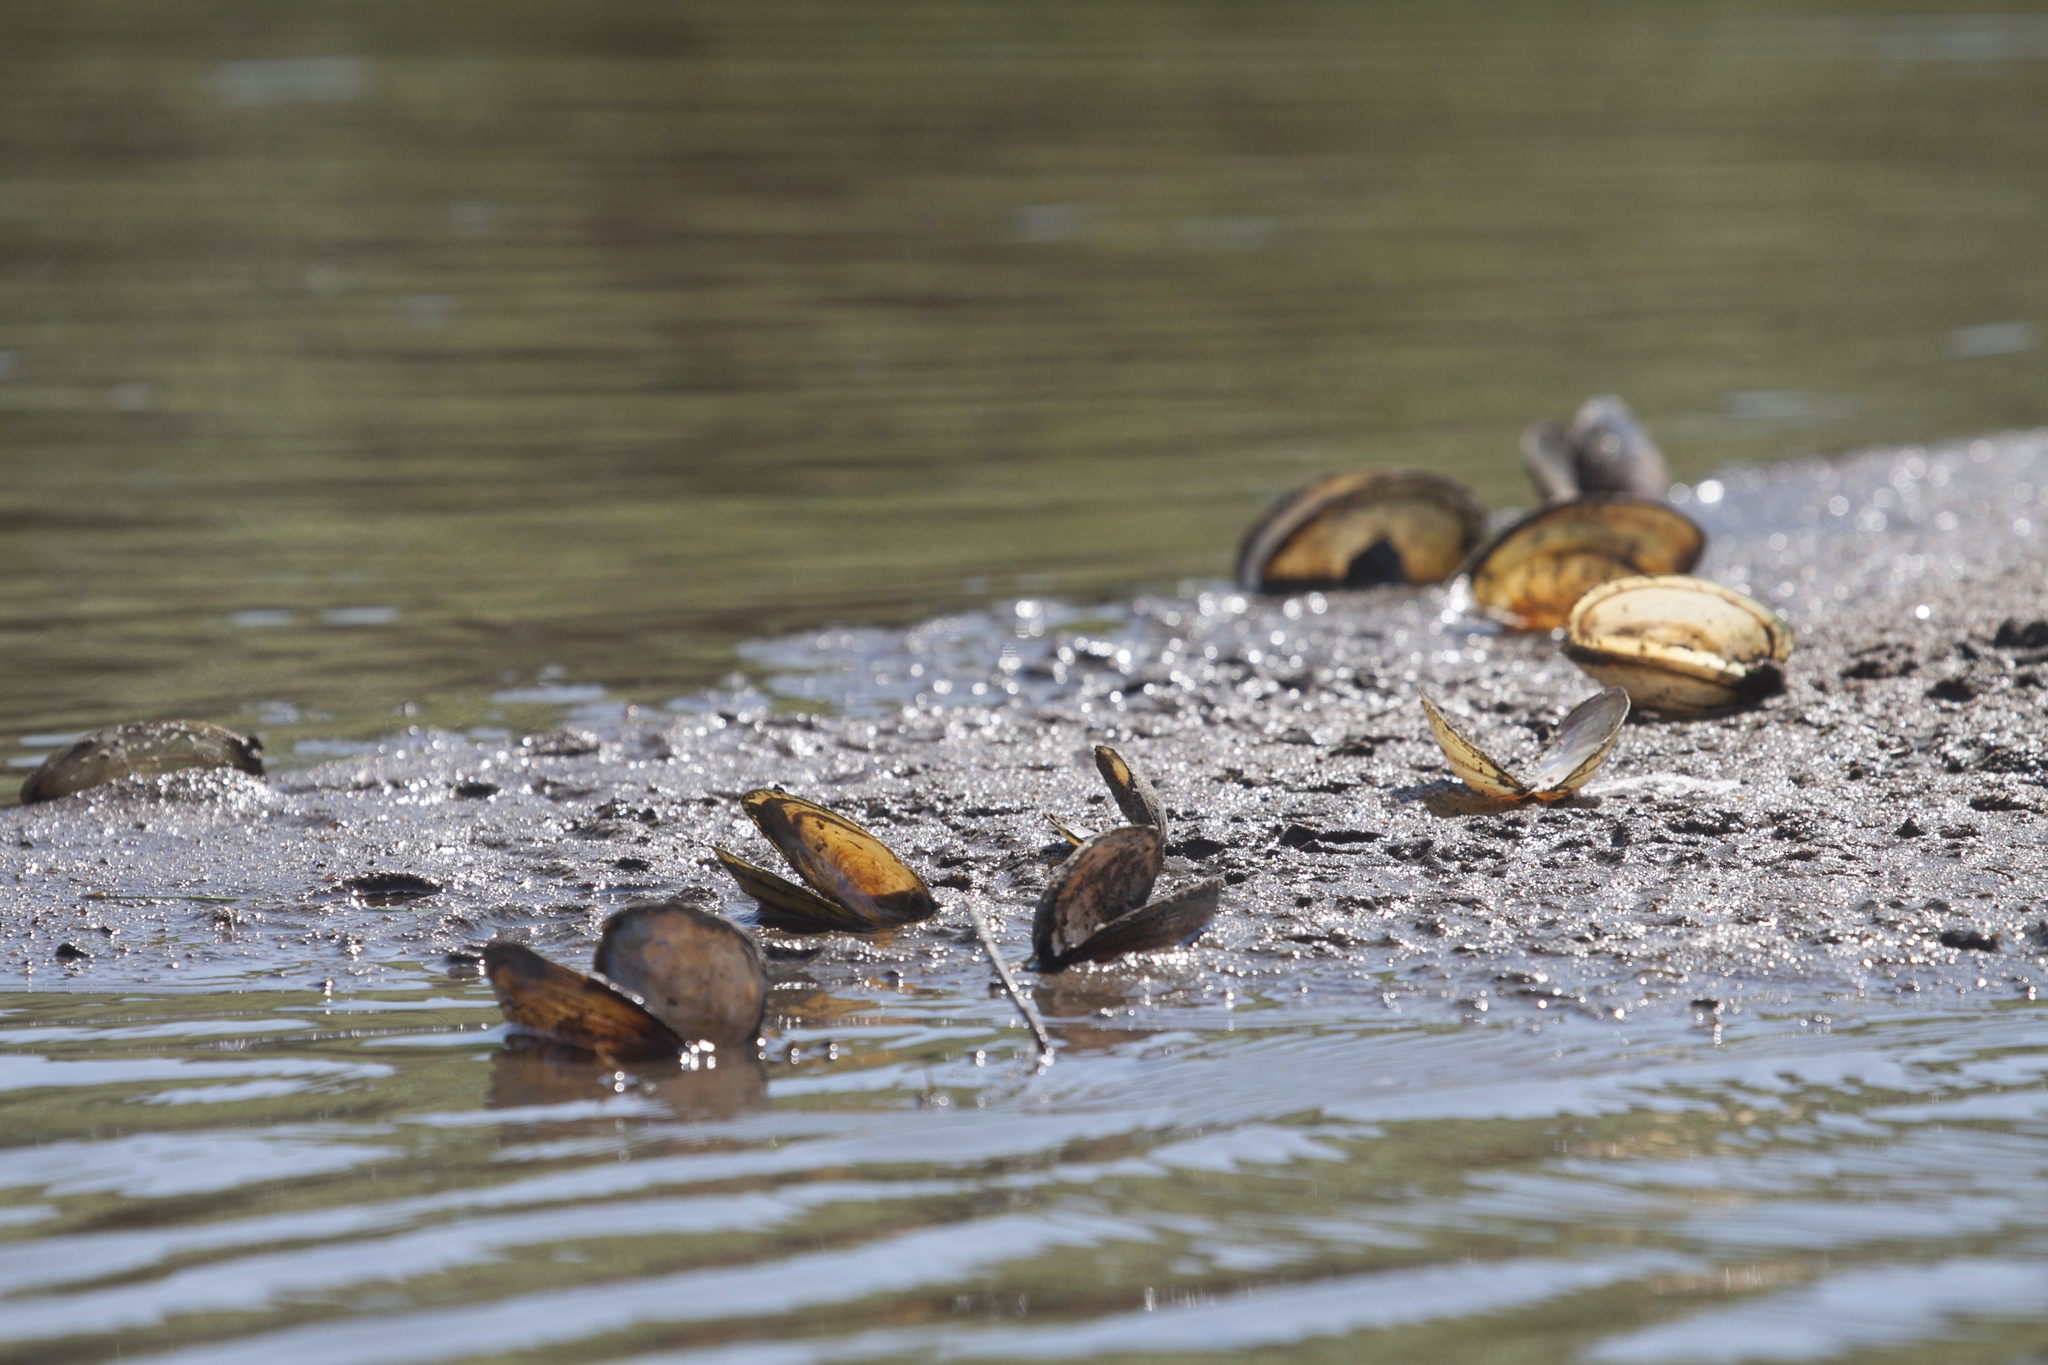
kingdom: Animalia
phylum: Mollusca
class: Bivalvia
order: Unionida
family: Unionidae
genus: Anodonta
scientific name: Anodonta anatina
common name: Duck mussel
